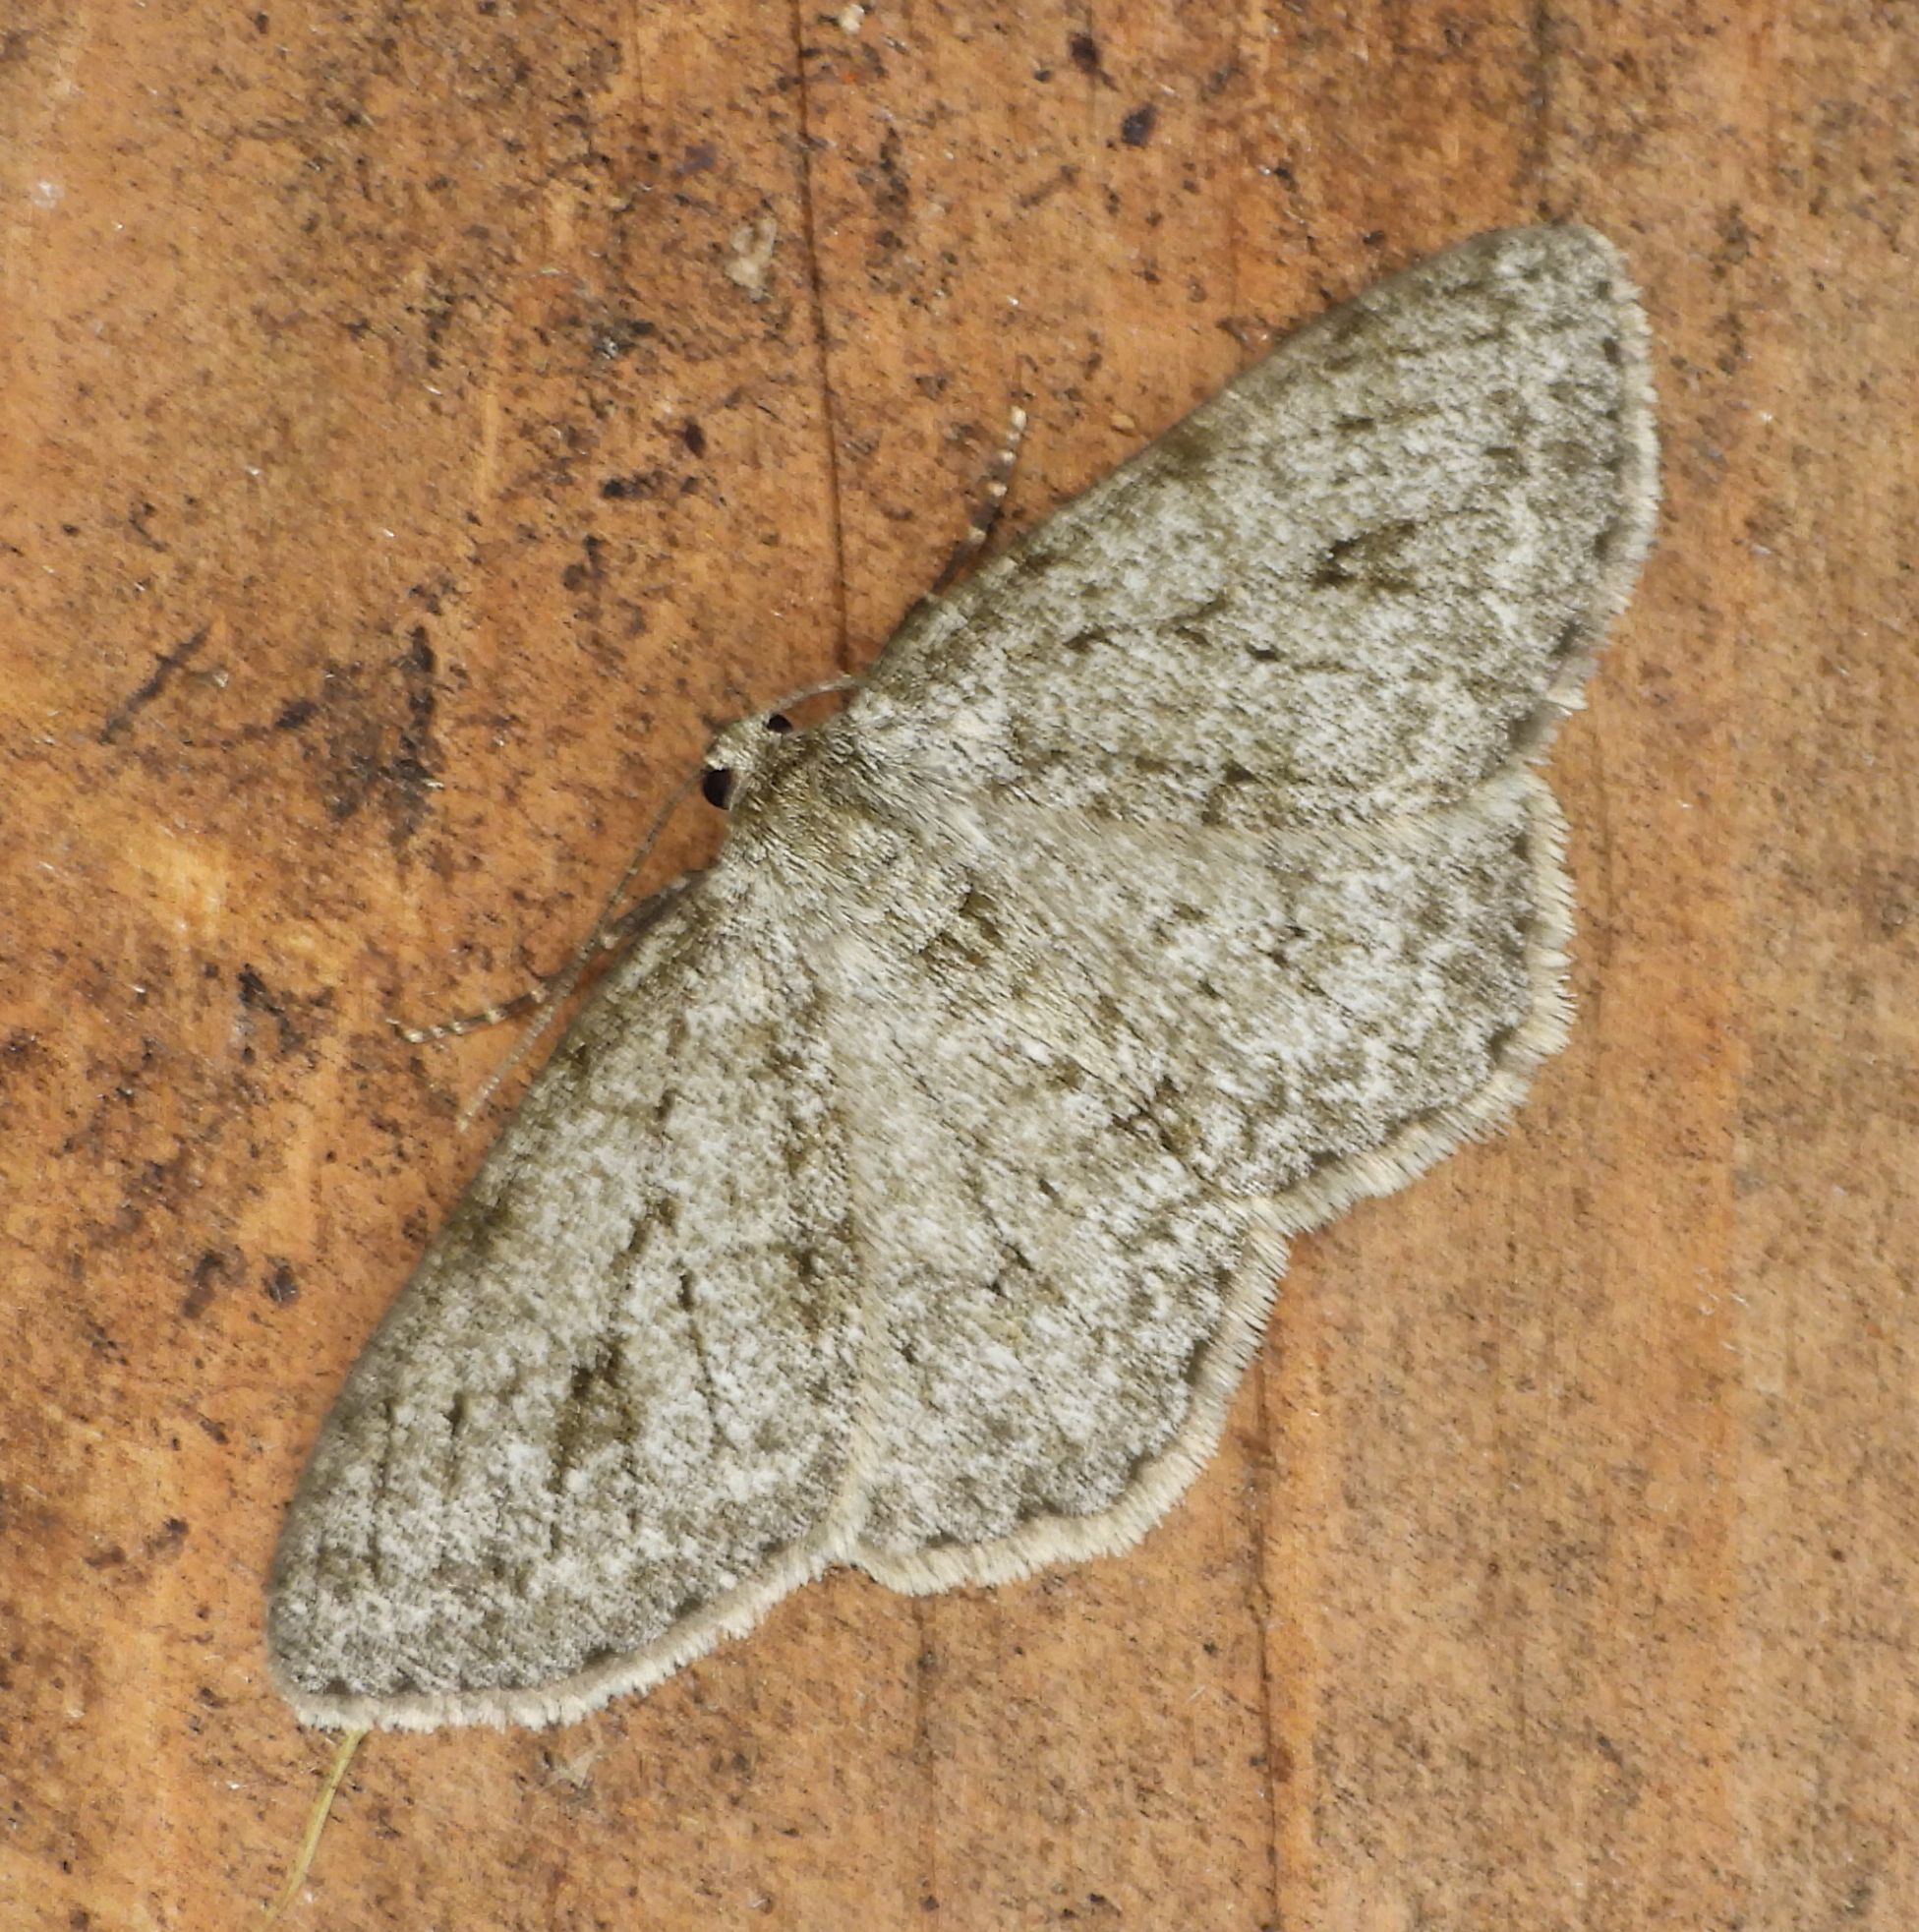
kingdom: Animalia
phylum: Arthropoda
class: Insecta
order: Lepidoptera
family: Geometridae
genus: Ectropis
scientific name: Ectropis crepuscularia
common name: Engrailed
